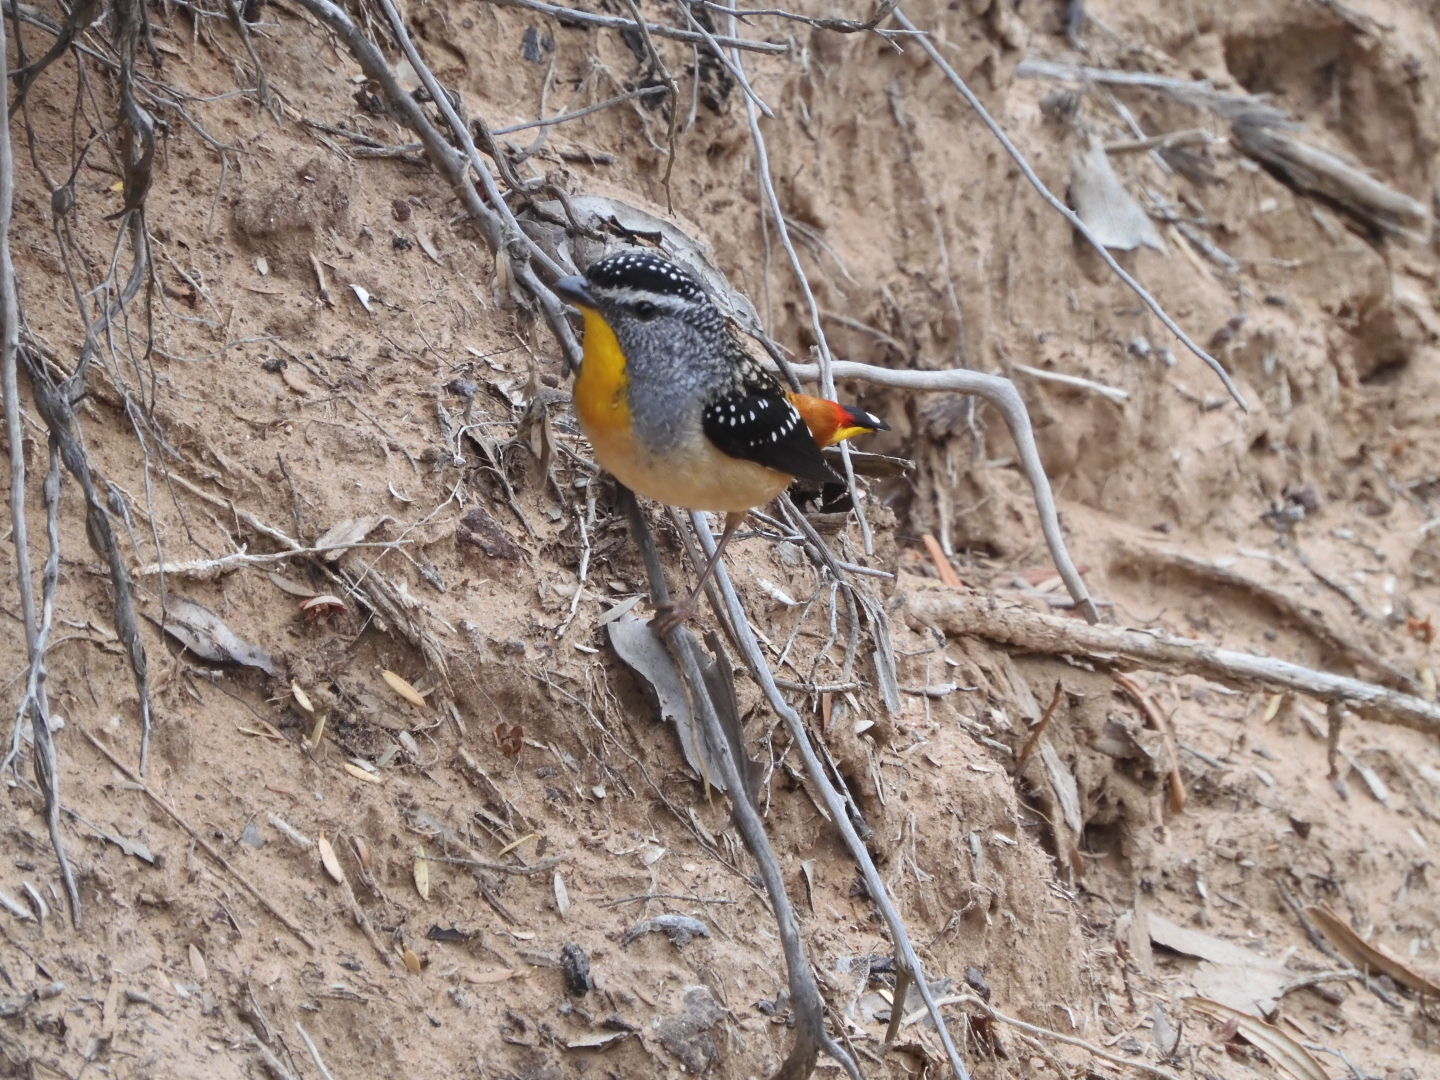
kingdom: Animalia
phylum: Chordata
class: Aves
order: Passeriformes
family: Pardalotidae
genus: Pardalotus
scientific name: Pardalotus punctatus
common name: Spotted pardalote
